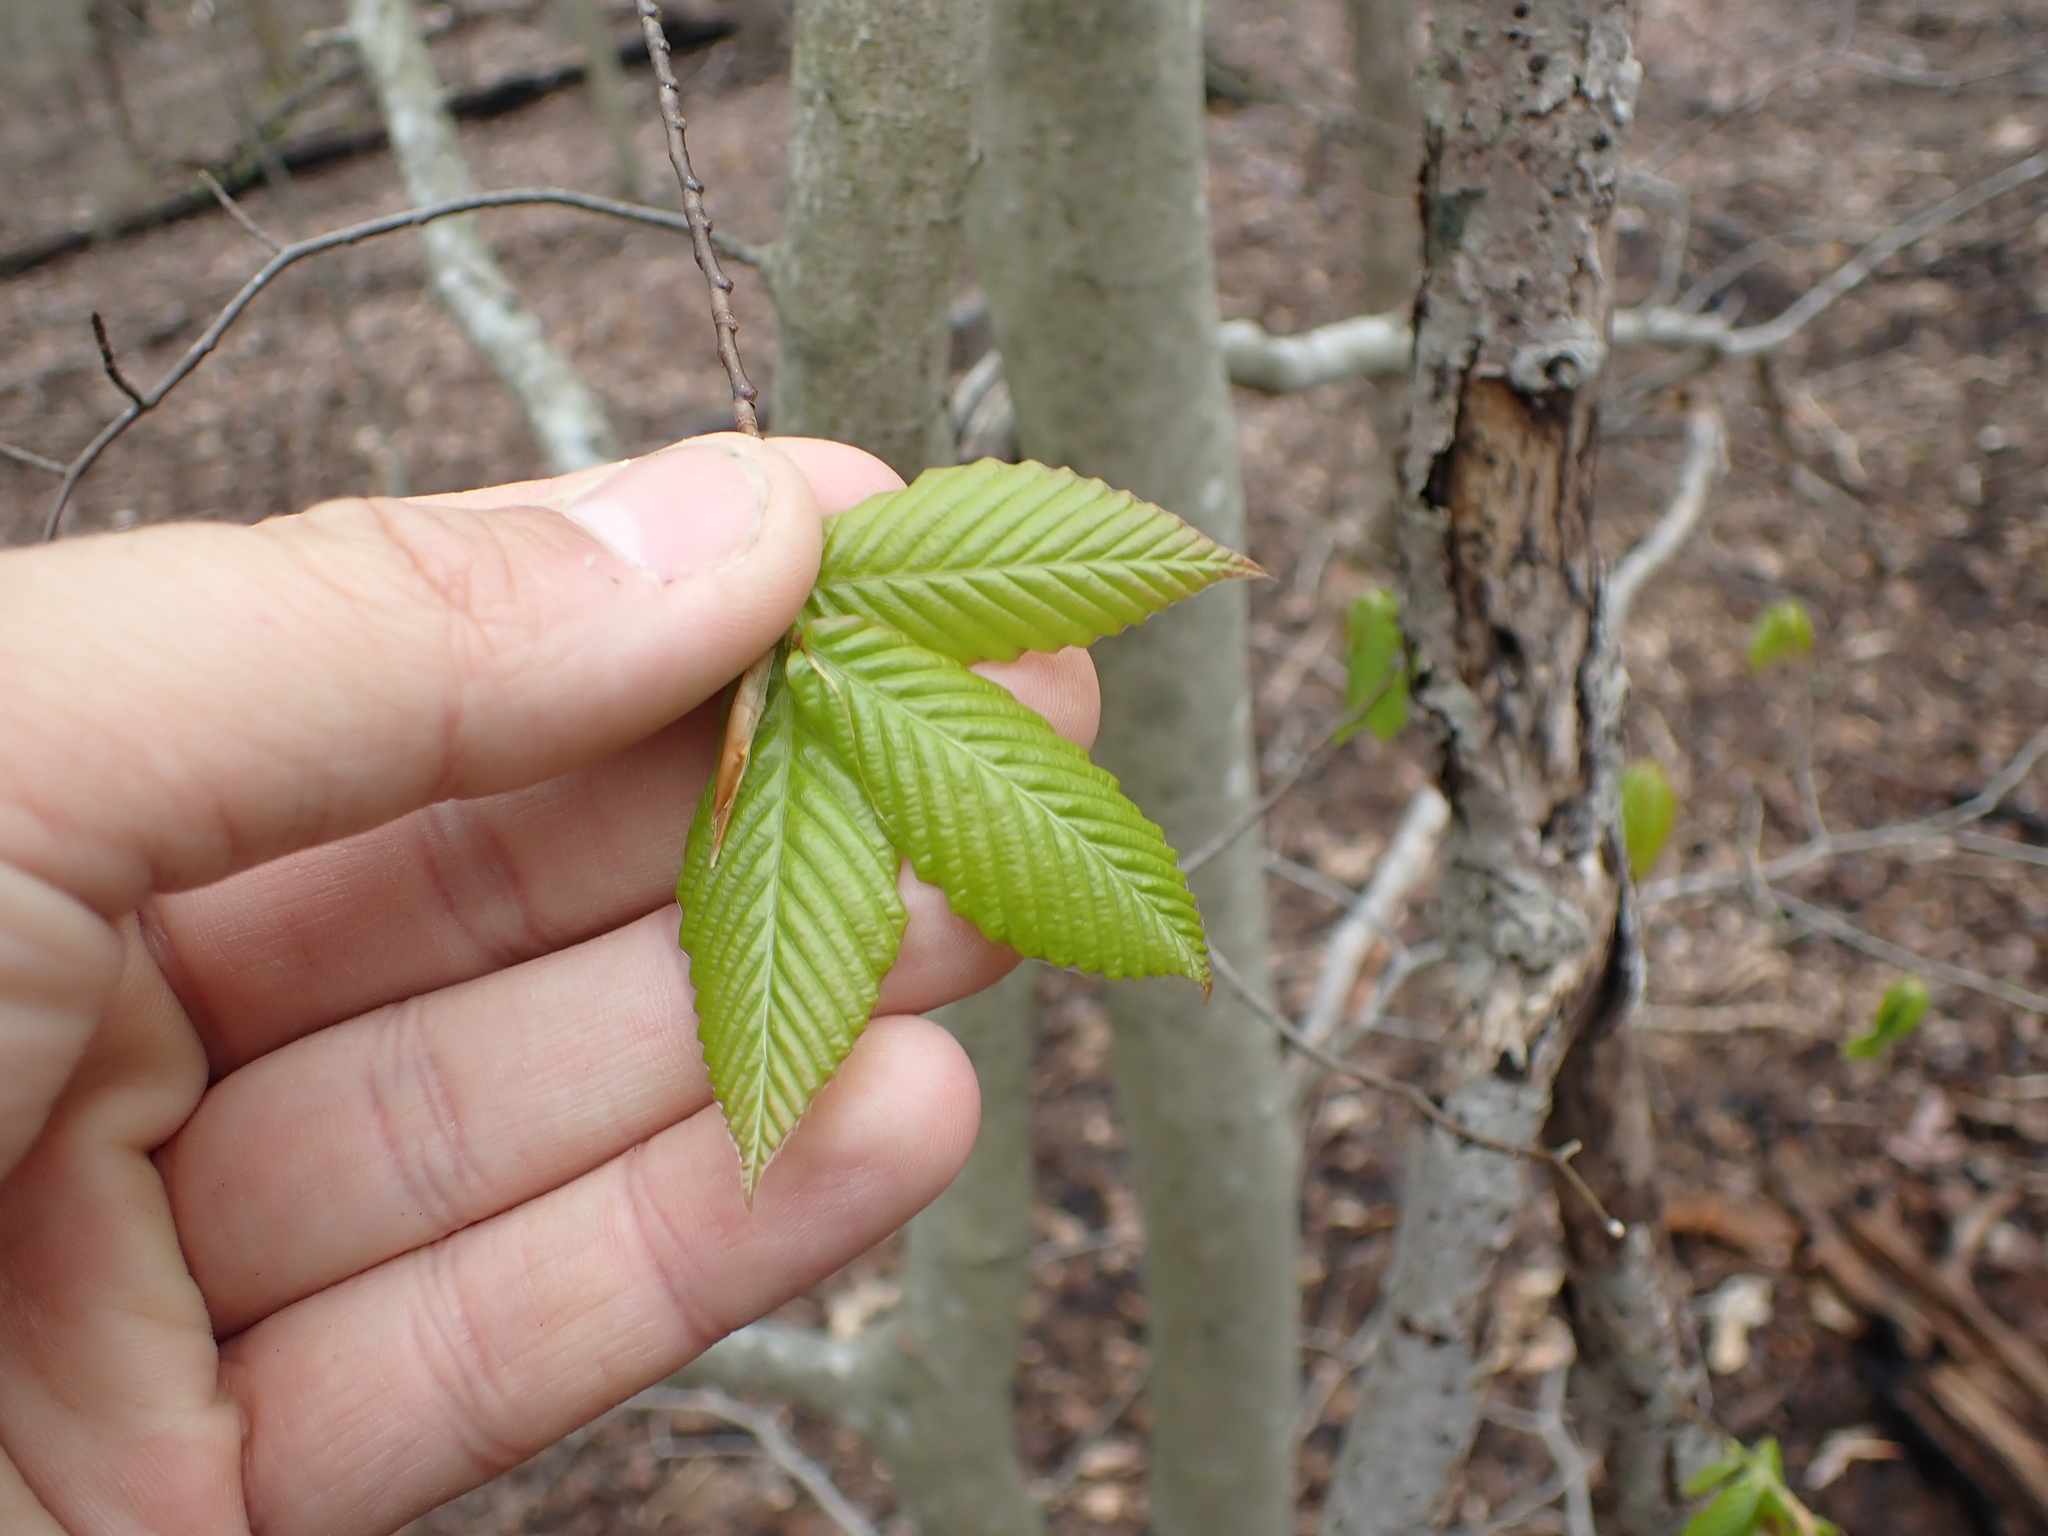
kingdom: Plantae
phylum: Tracheophyta
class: Magnoliopsida
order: Fagales
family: Fagaceae
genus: Fagus
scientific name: Fagus grandifolia
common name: American beech
